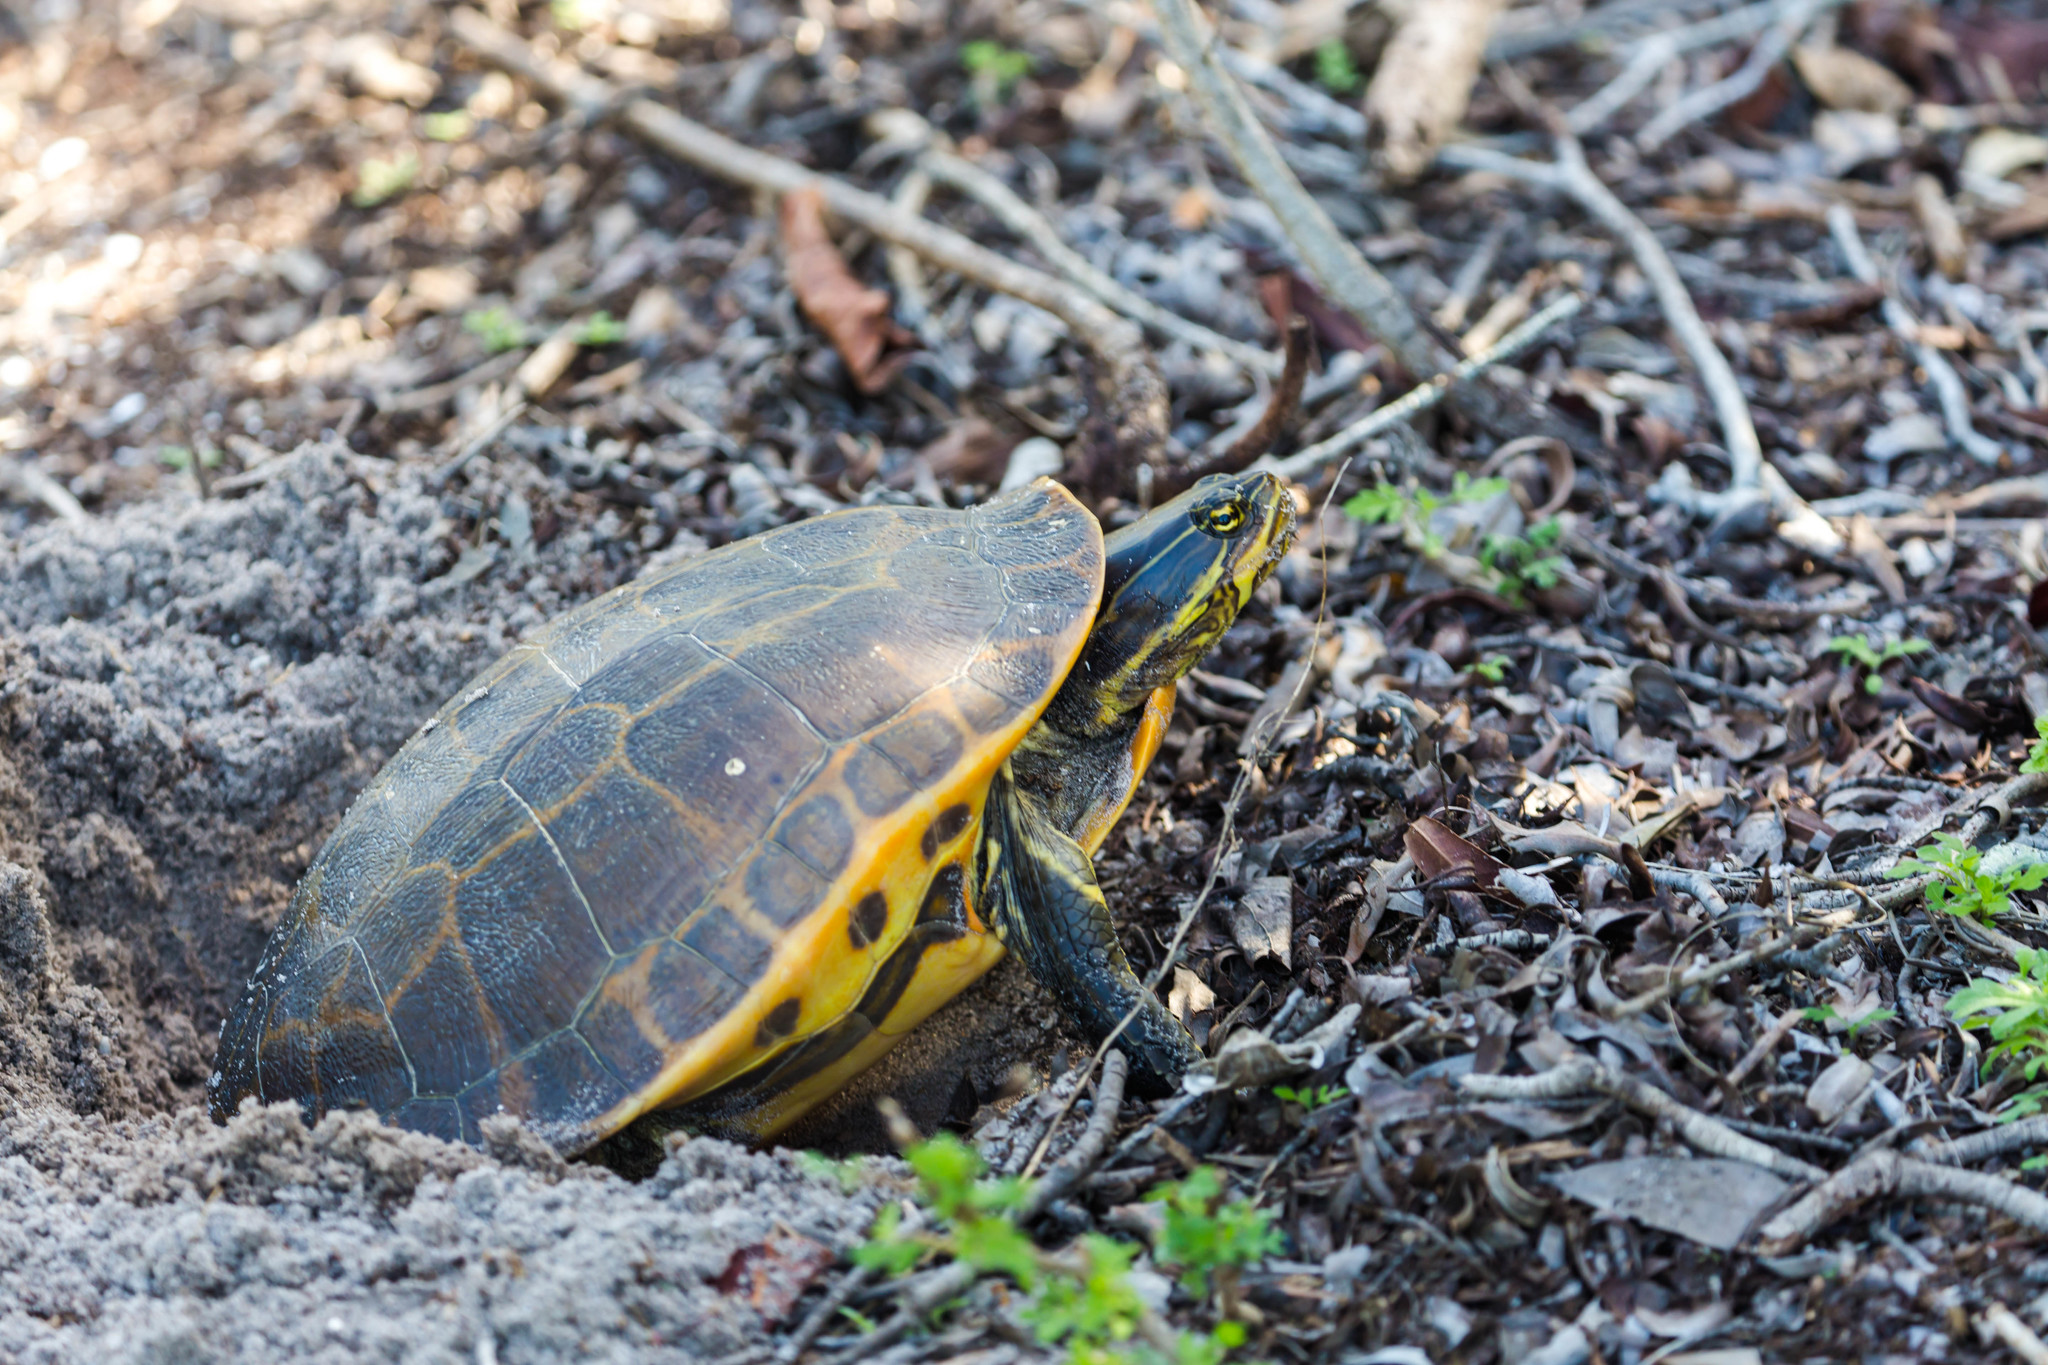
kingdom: Animalia
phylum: Chordata
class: Testudines
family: Emydidae
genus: Deirochelys
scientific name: Deirochelys reticularia
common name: Chicken turtle
